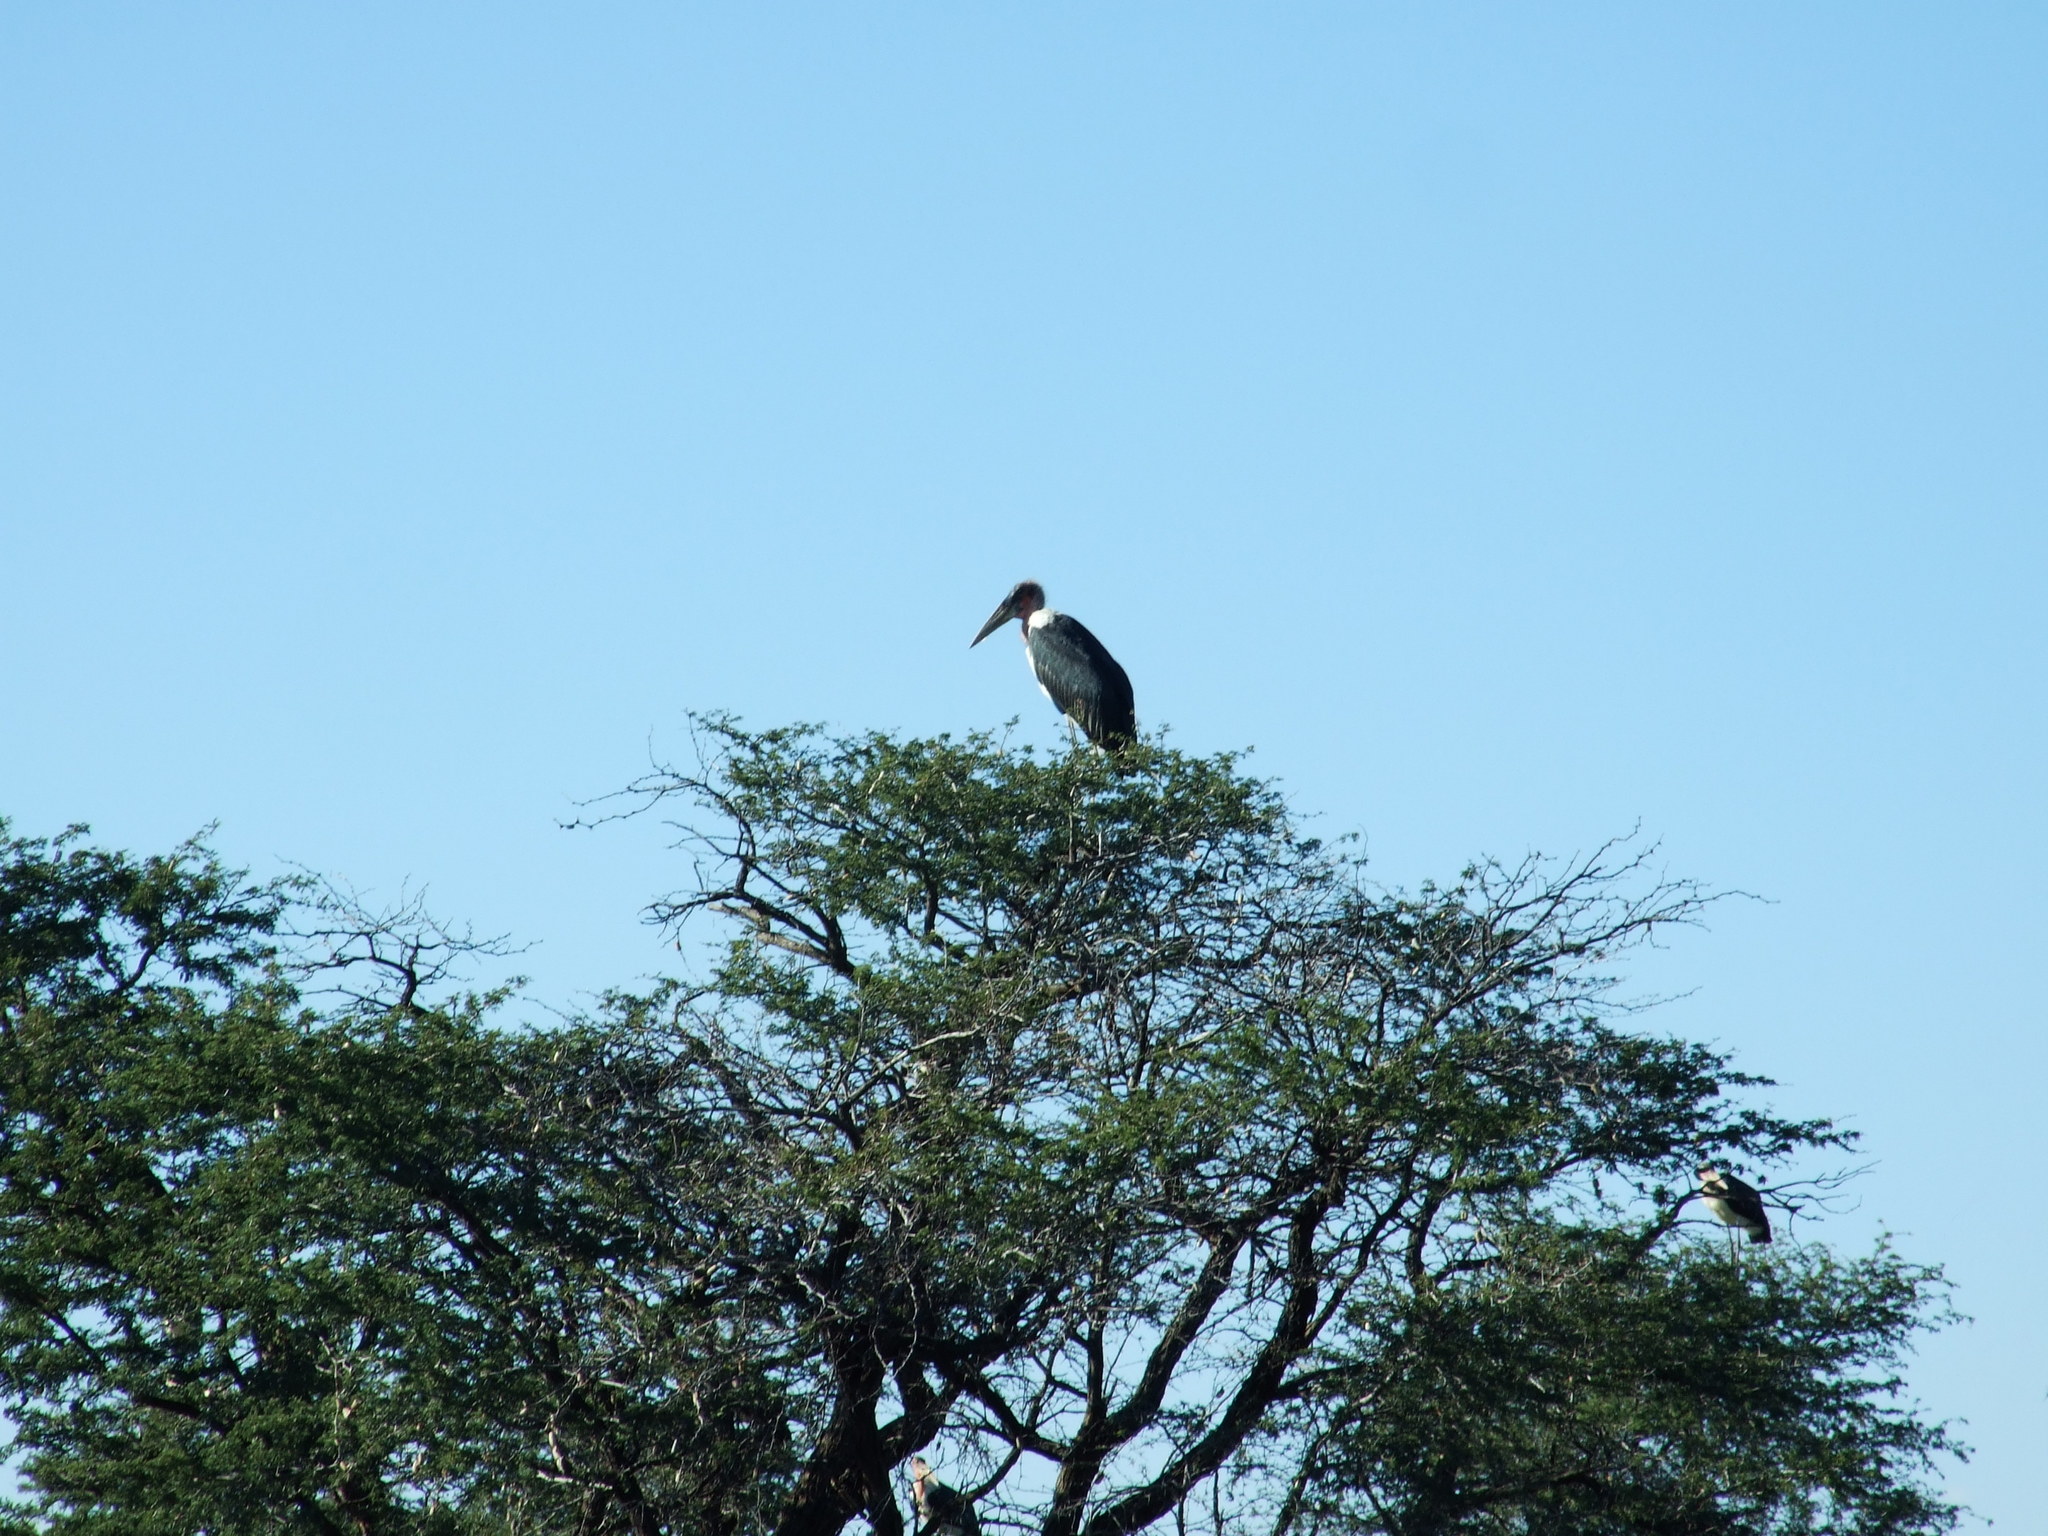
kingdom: Animalia
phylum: Chordata
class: Aves
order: Ciconiiformes
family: Ciconiidae
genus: Leptoptilos
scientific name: Leptoptilos crumenifer
